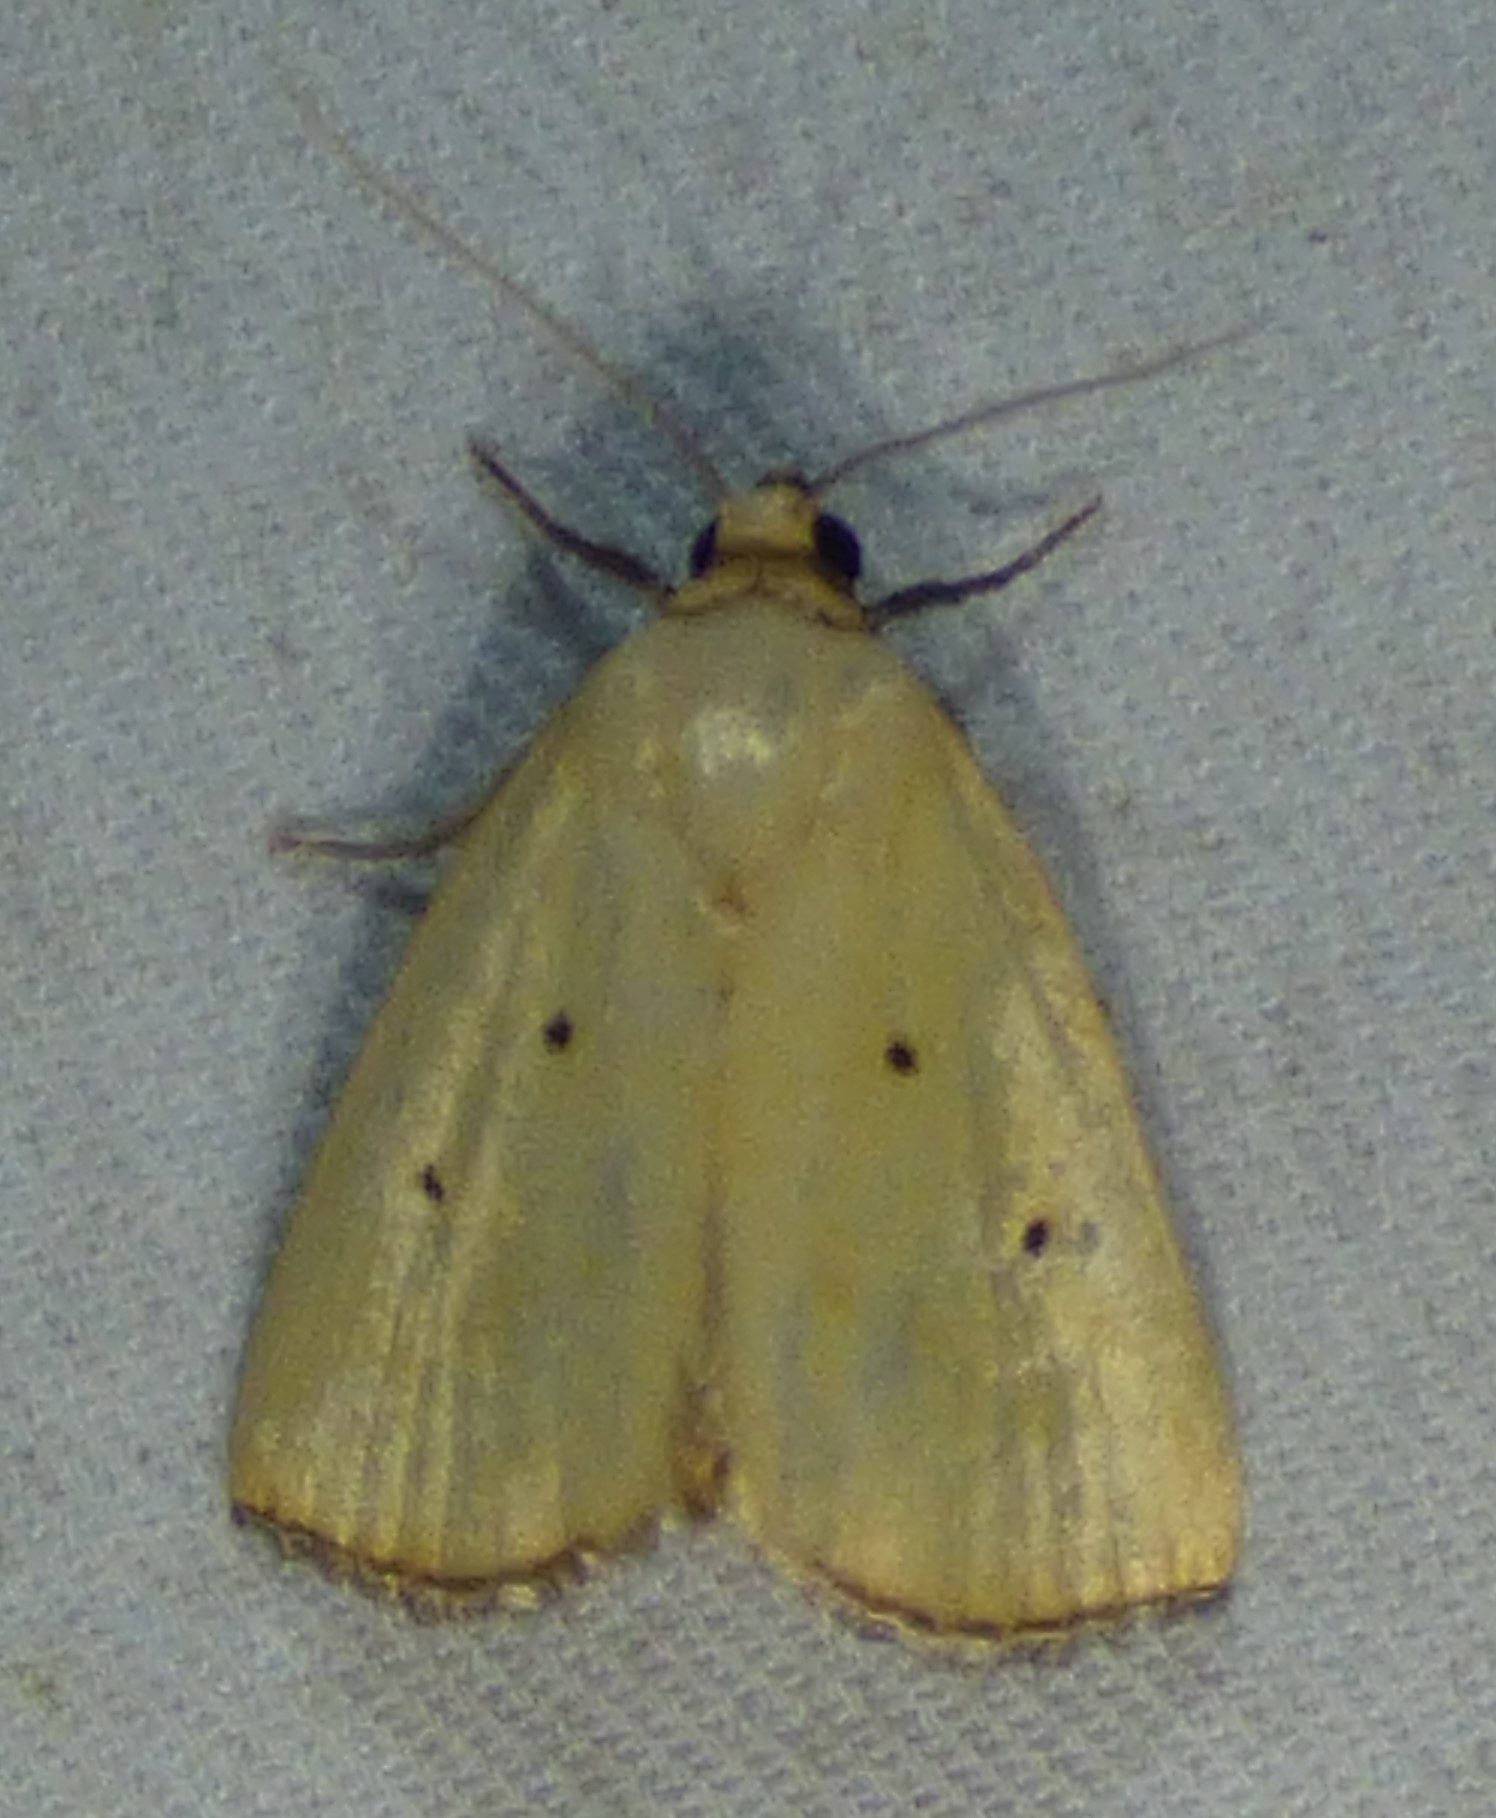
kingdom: Animalia
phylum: Arthropoda
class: Insecta
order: Lepidoptera
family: Noctuidae
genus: Marimatha
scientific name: Marimatha nigrofimbria
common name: Black-bordered lemon moth
